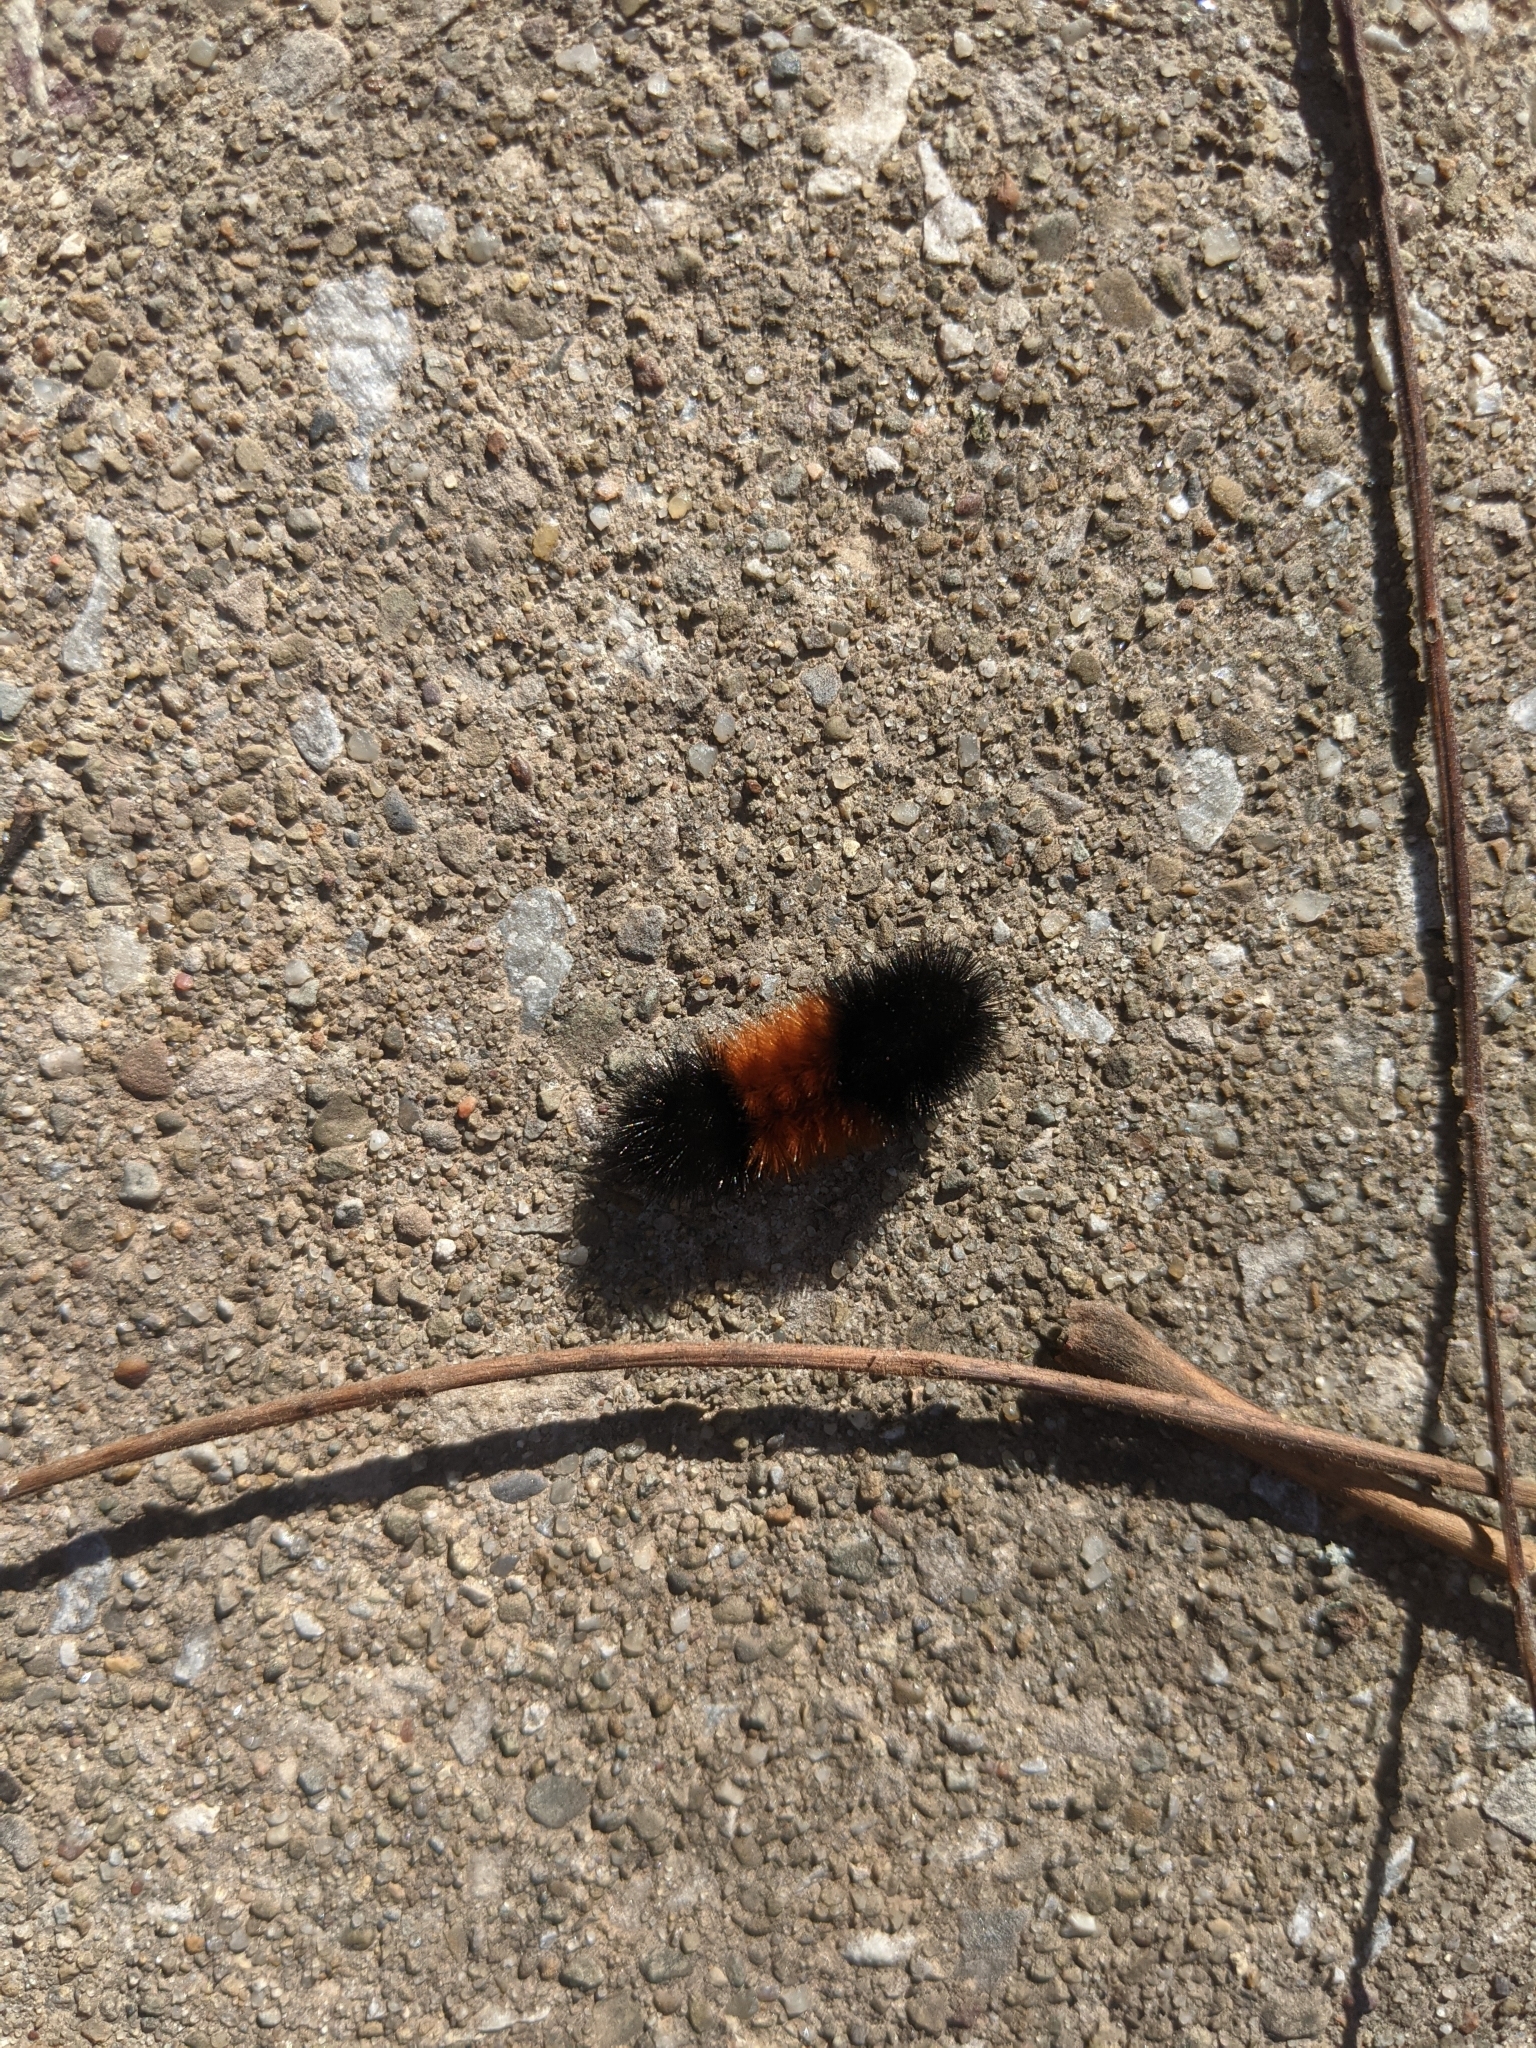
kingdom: Animalia
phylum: Arthropoda
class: Insecta
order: Lepidoptera
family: Erebidae
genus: Pyrrharctia
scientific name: Pyrrharctia isabella
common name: Isabella tiger moth
